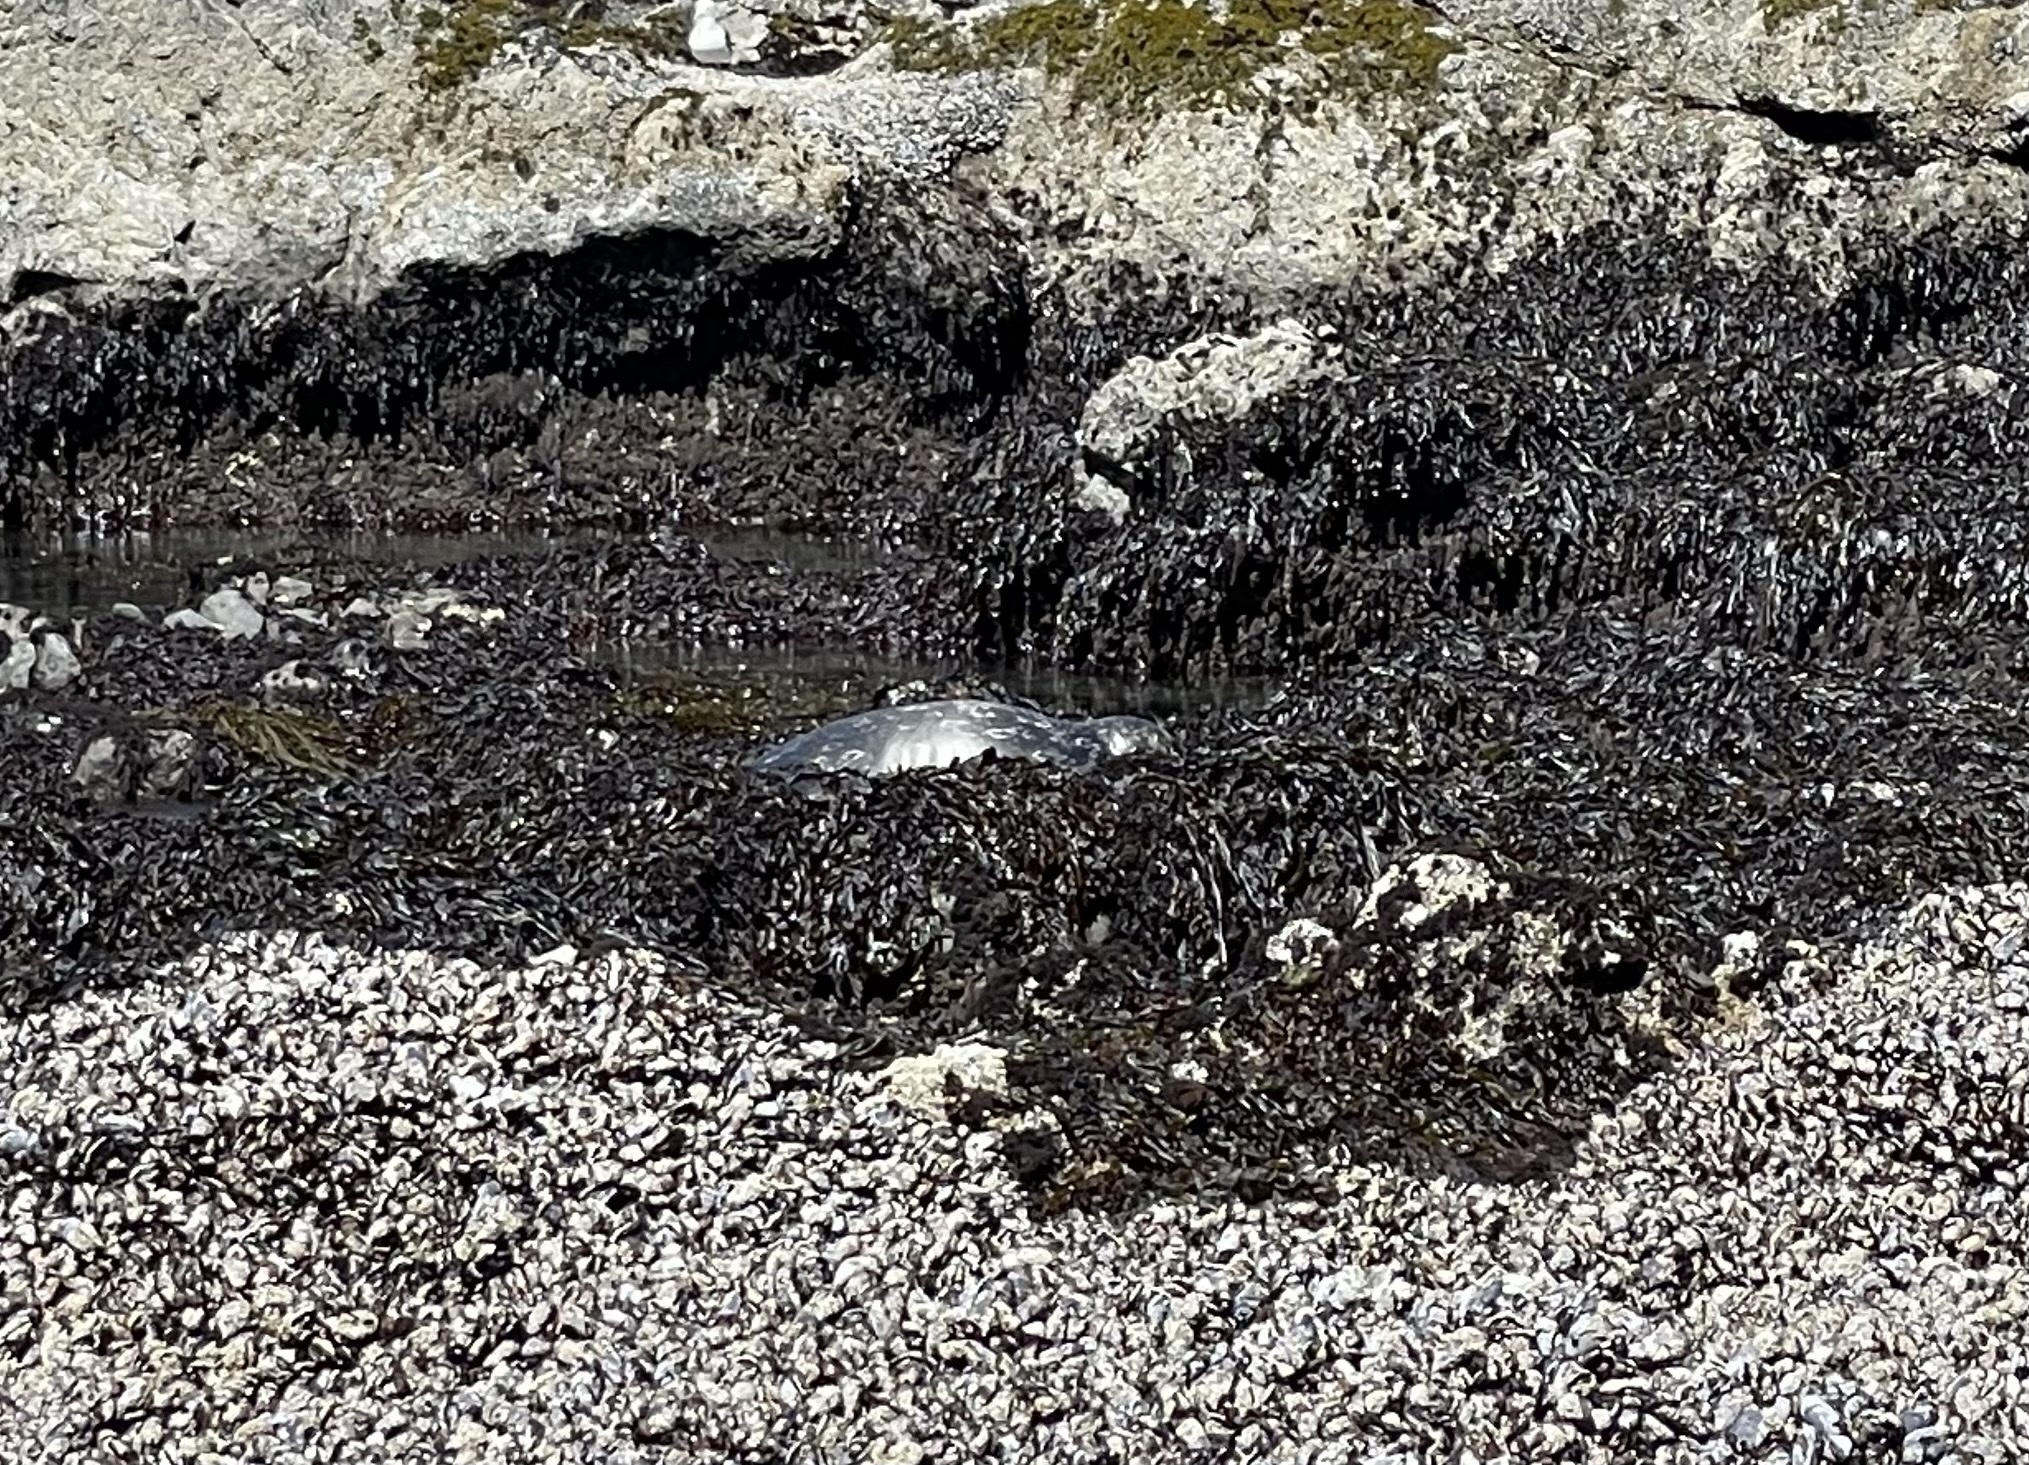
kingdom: Animalia
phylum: Chordata
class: Mammalia
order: Carnivora
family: Phocidae
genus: Phoca
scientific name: Phoca vitulina
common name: Harbor seal
